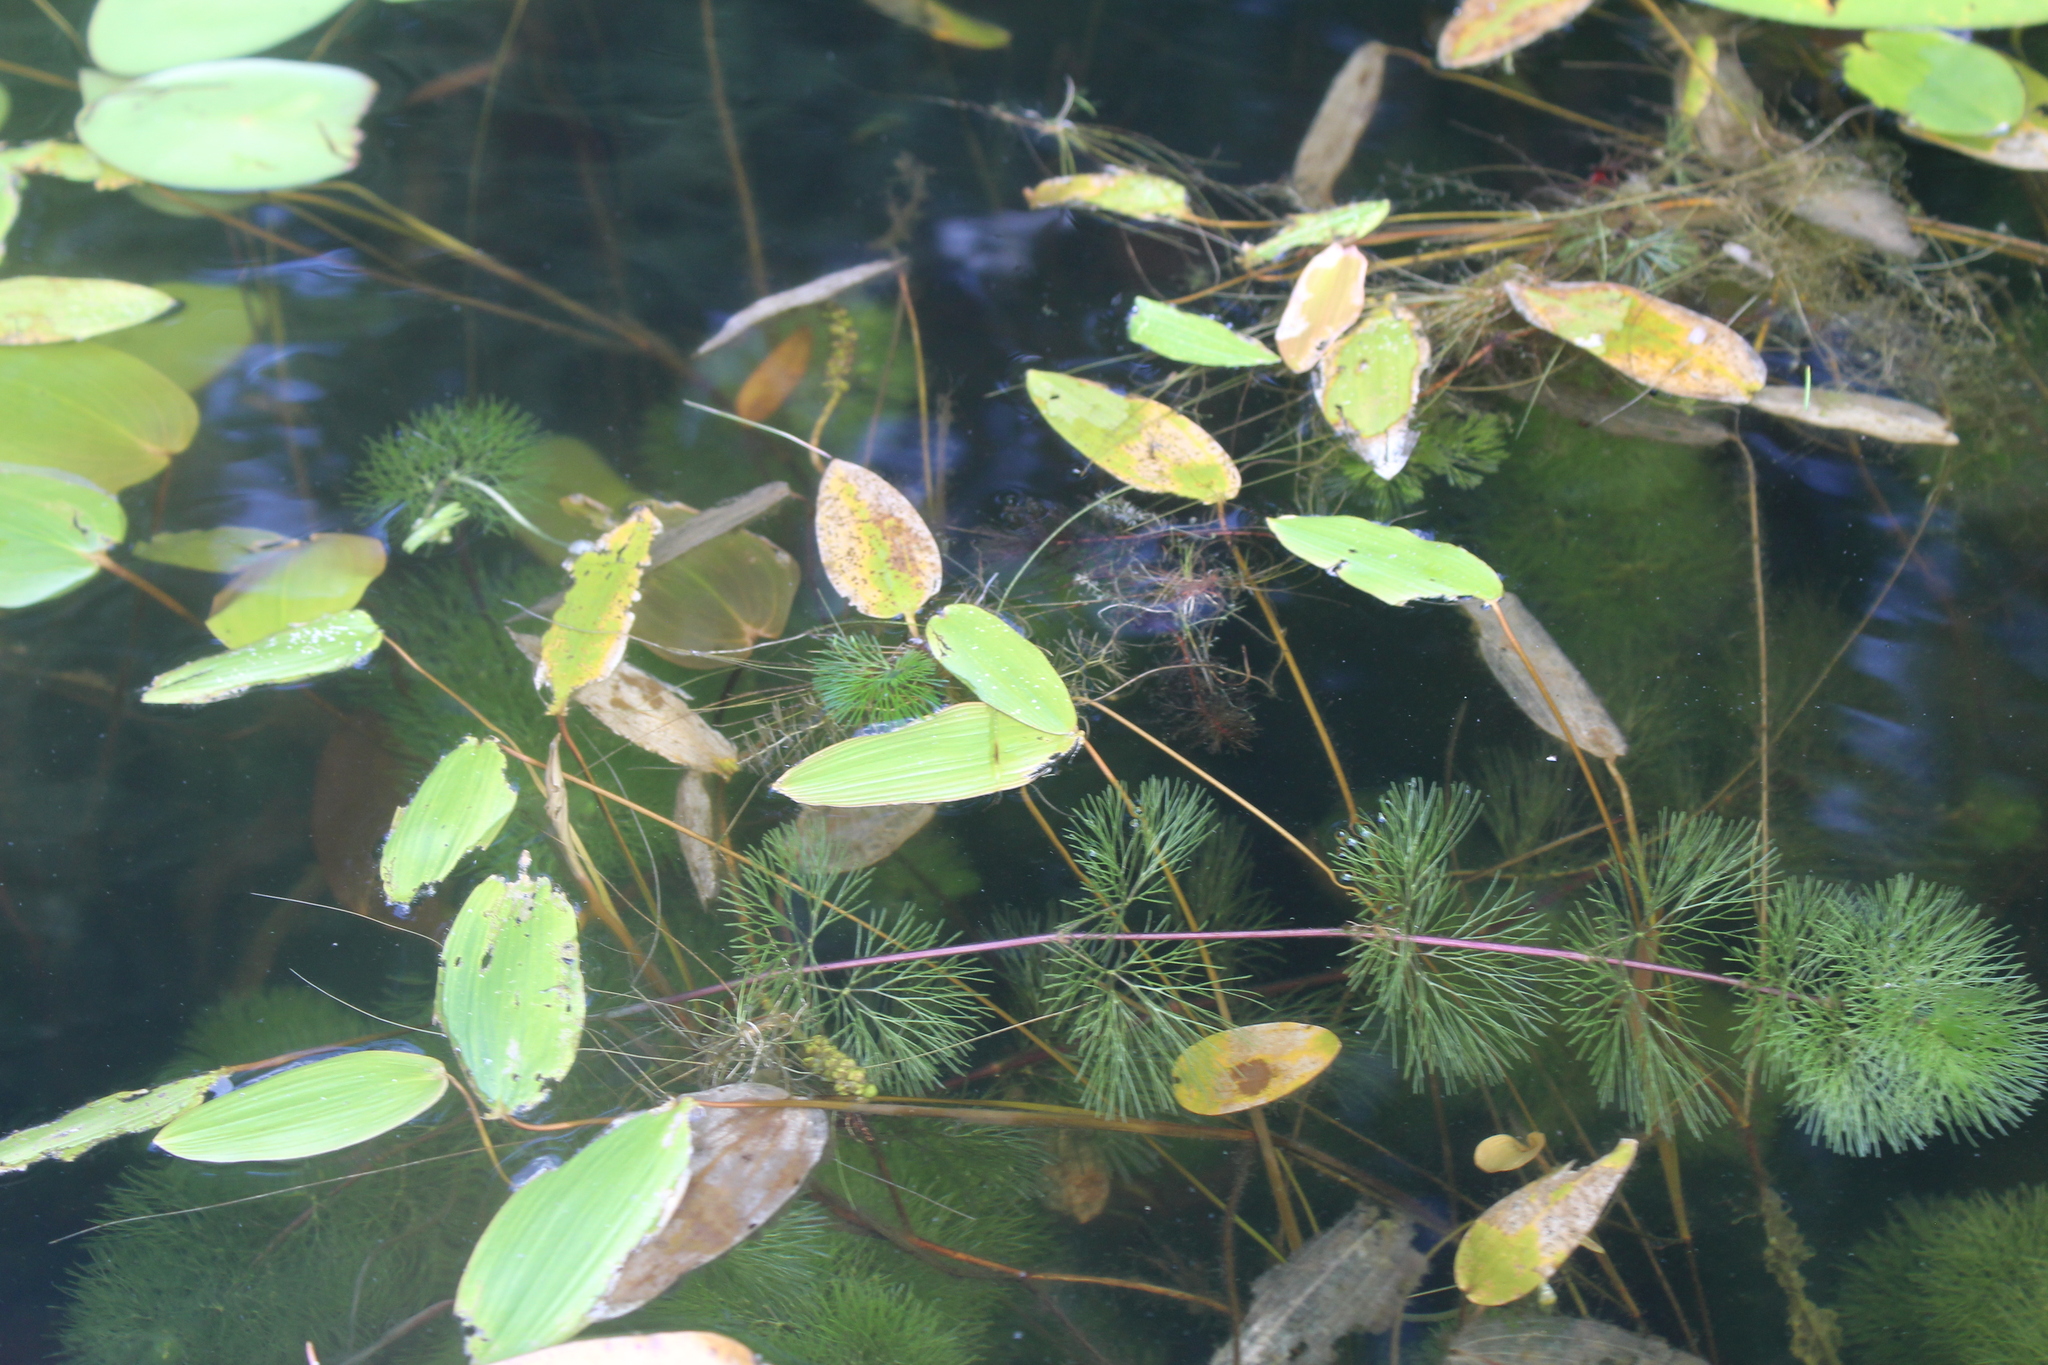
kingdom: Plantae
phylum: Tracheophyta
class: Liliopsida
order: Alismatales
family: Potamogetonaceae
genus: Potamogeton
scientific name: Potamogeton natans
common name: Broad-leaved pondweed
